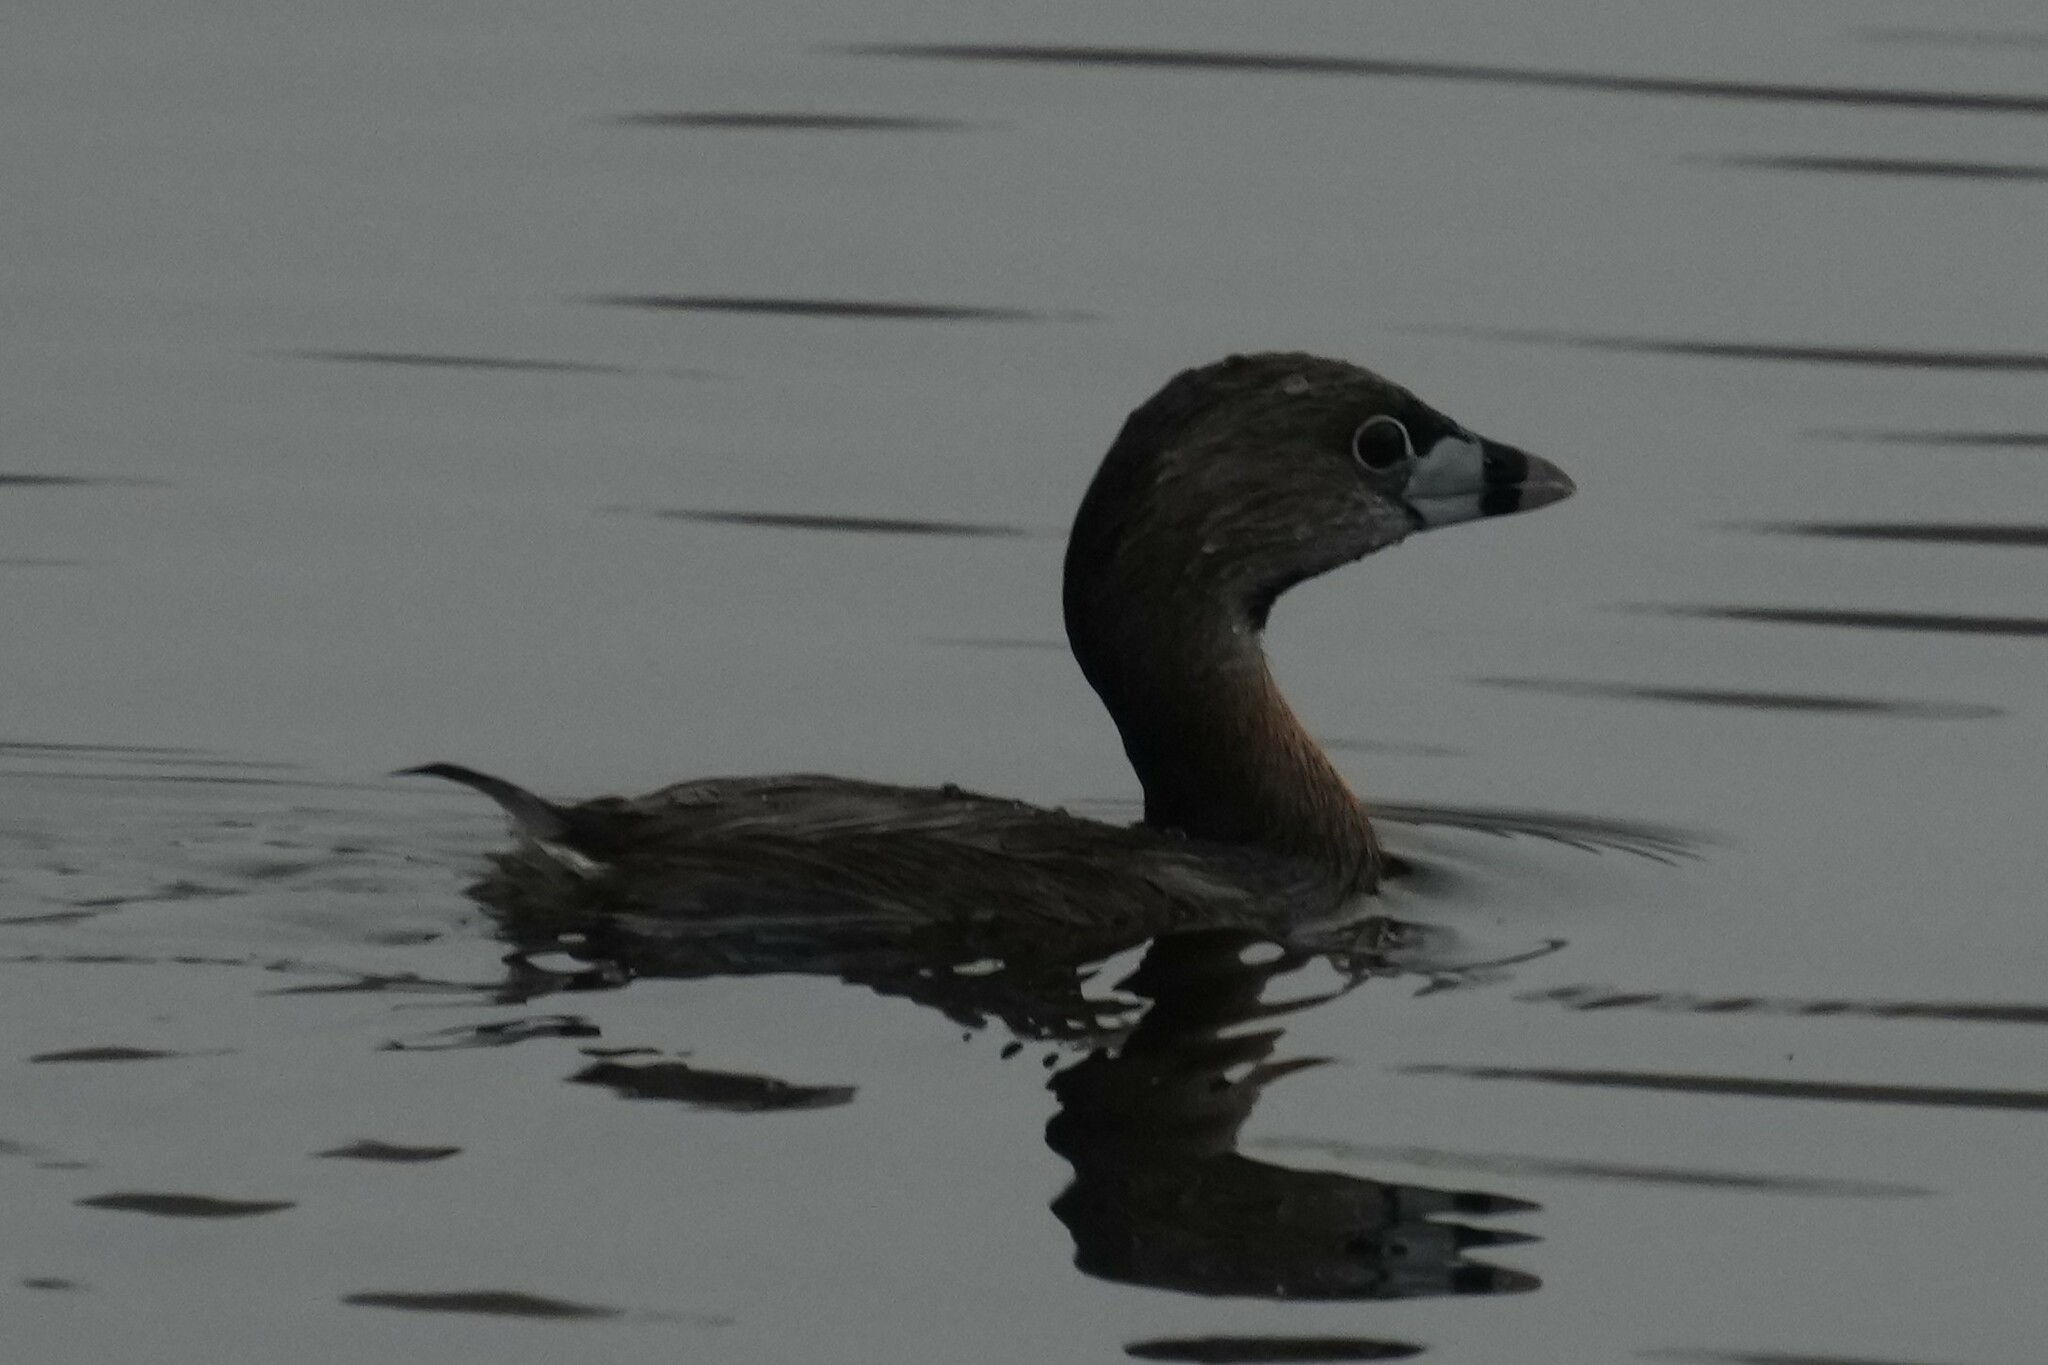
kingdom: Animalia
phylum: Chordata
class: Aves
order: Podicipediformes
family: Podicipedidae
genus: Podilymbus
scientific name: Podilymbus podiceps
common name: Pied-billed grebe
